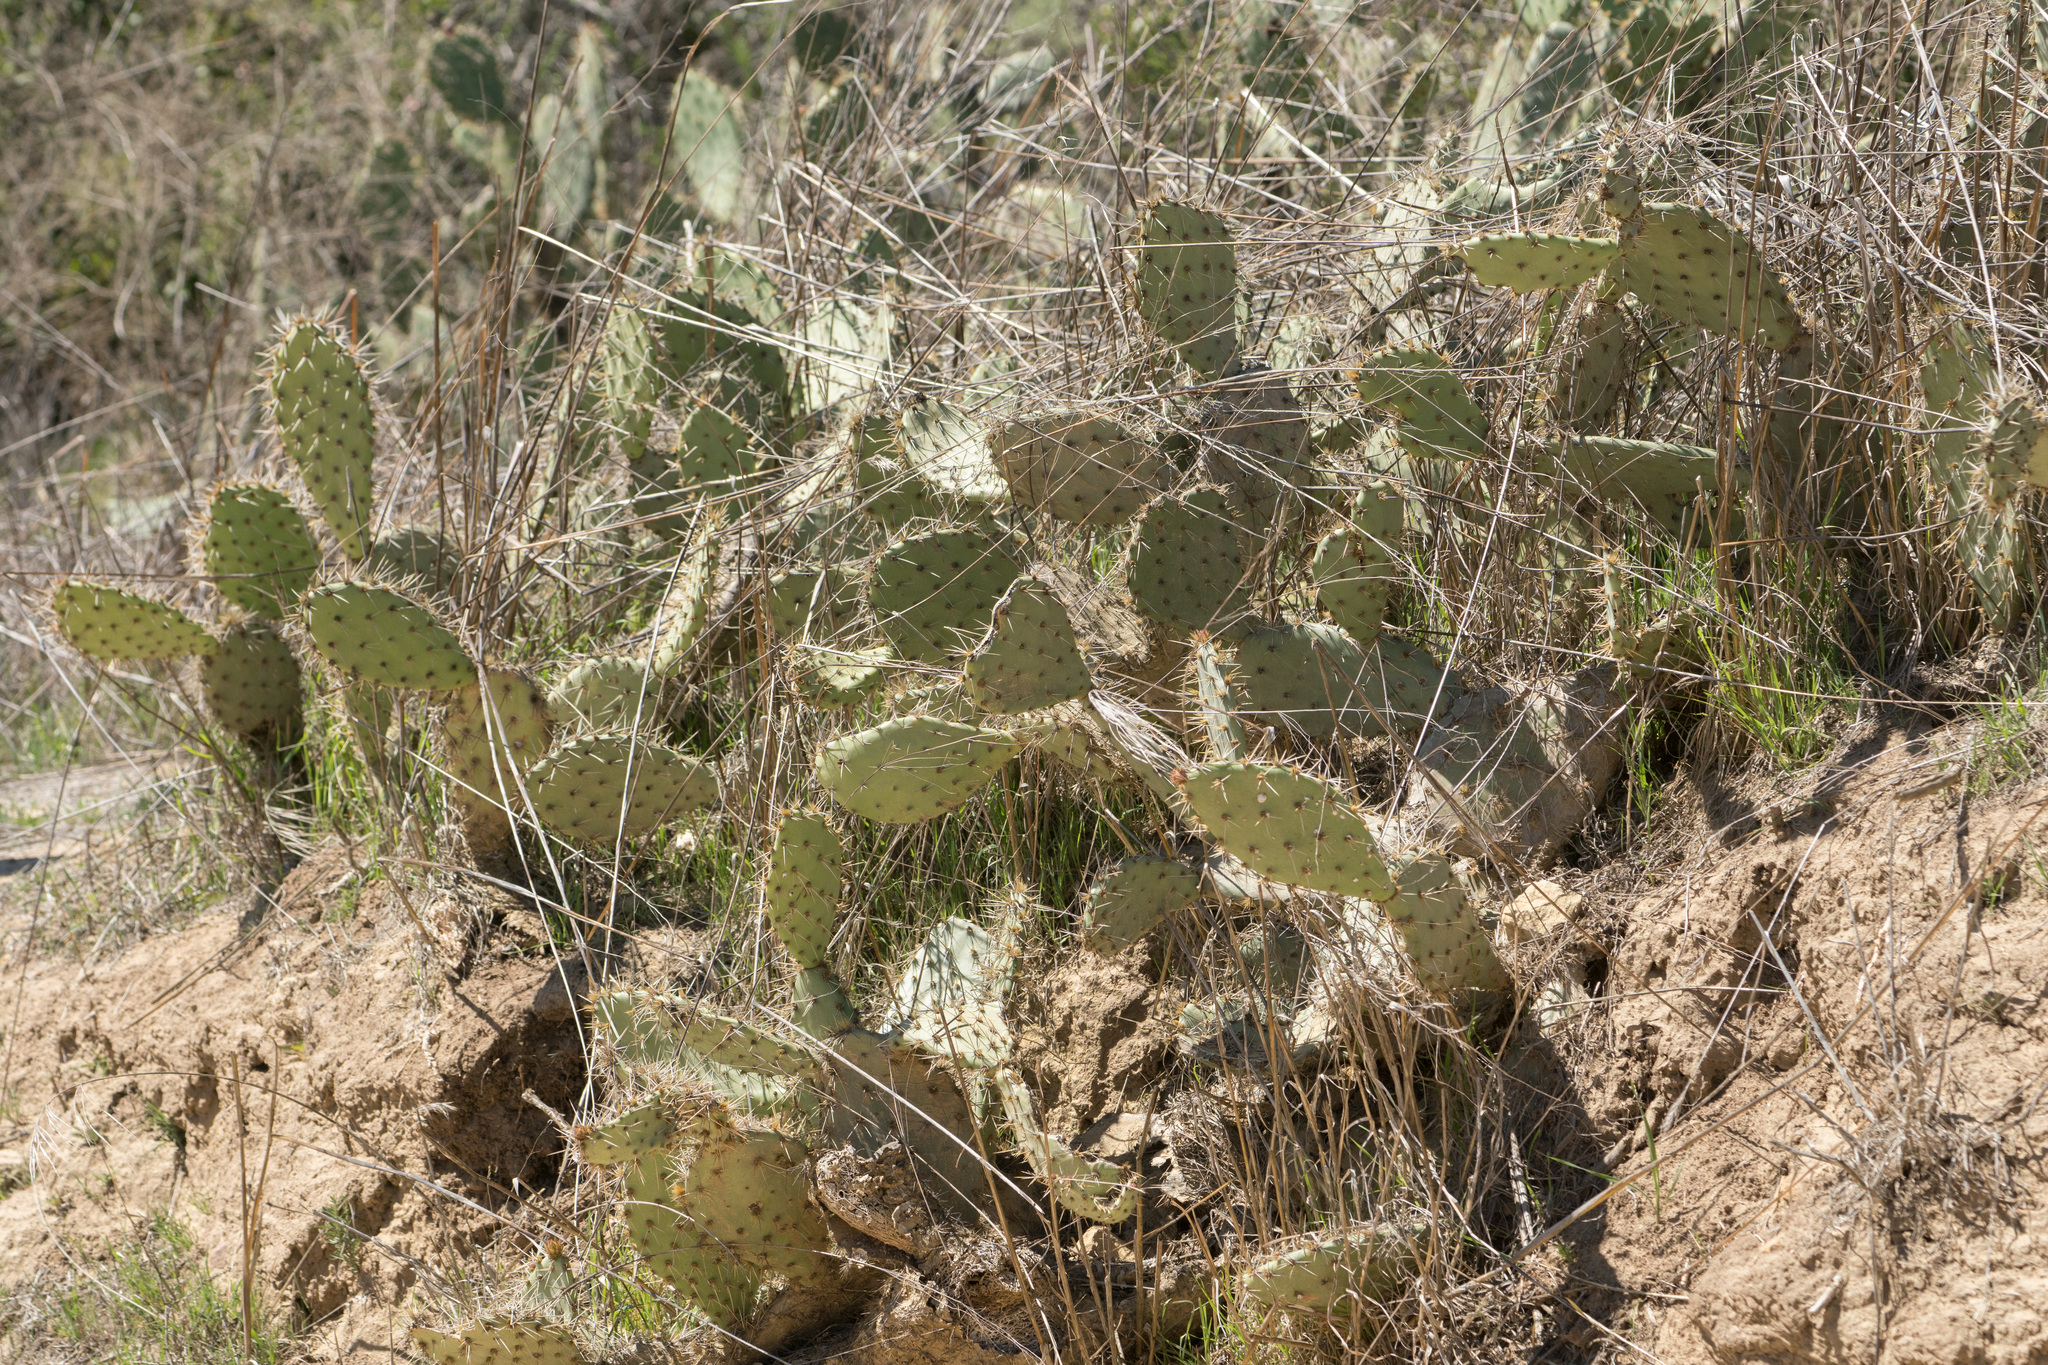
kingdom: Plantae
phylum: Tracheophyta
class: Magnoliopsida
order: Caryophyllales
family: Cactaceae
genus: Opuntia
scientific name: Opuntia
